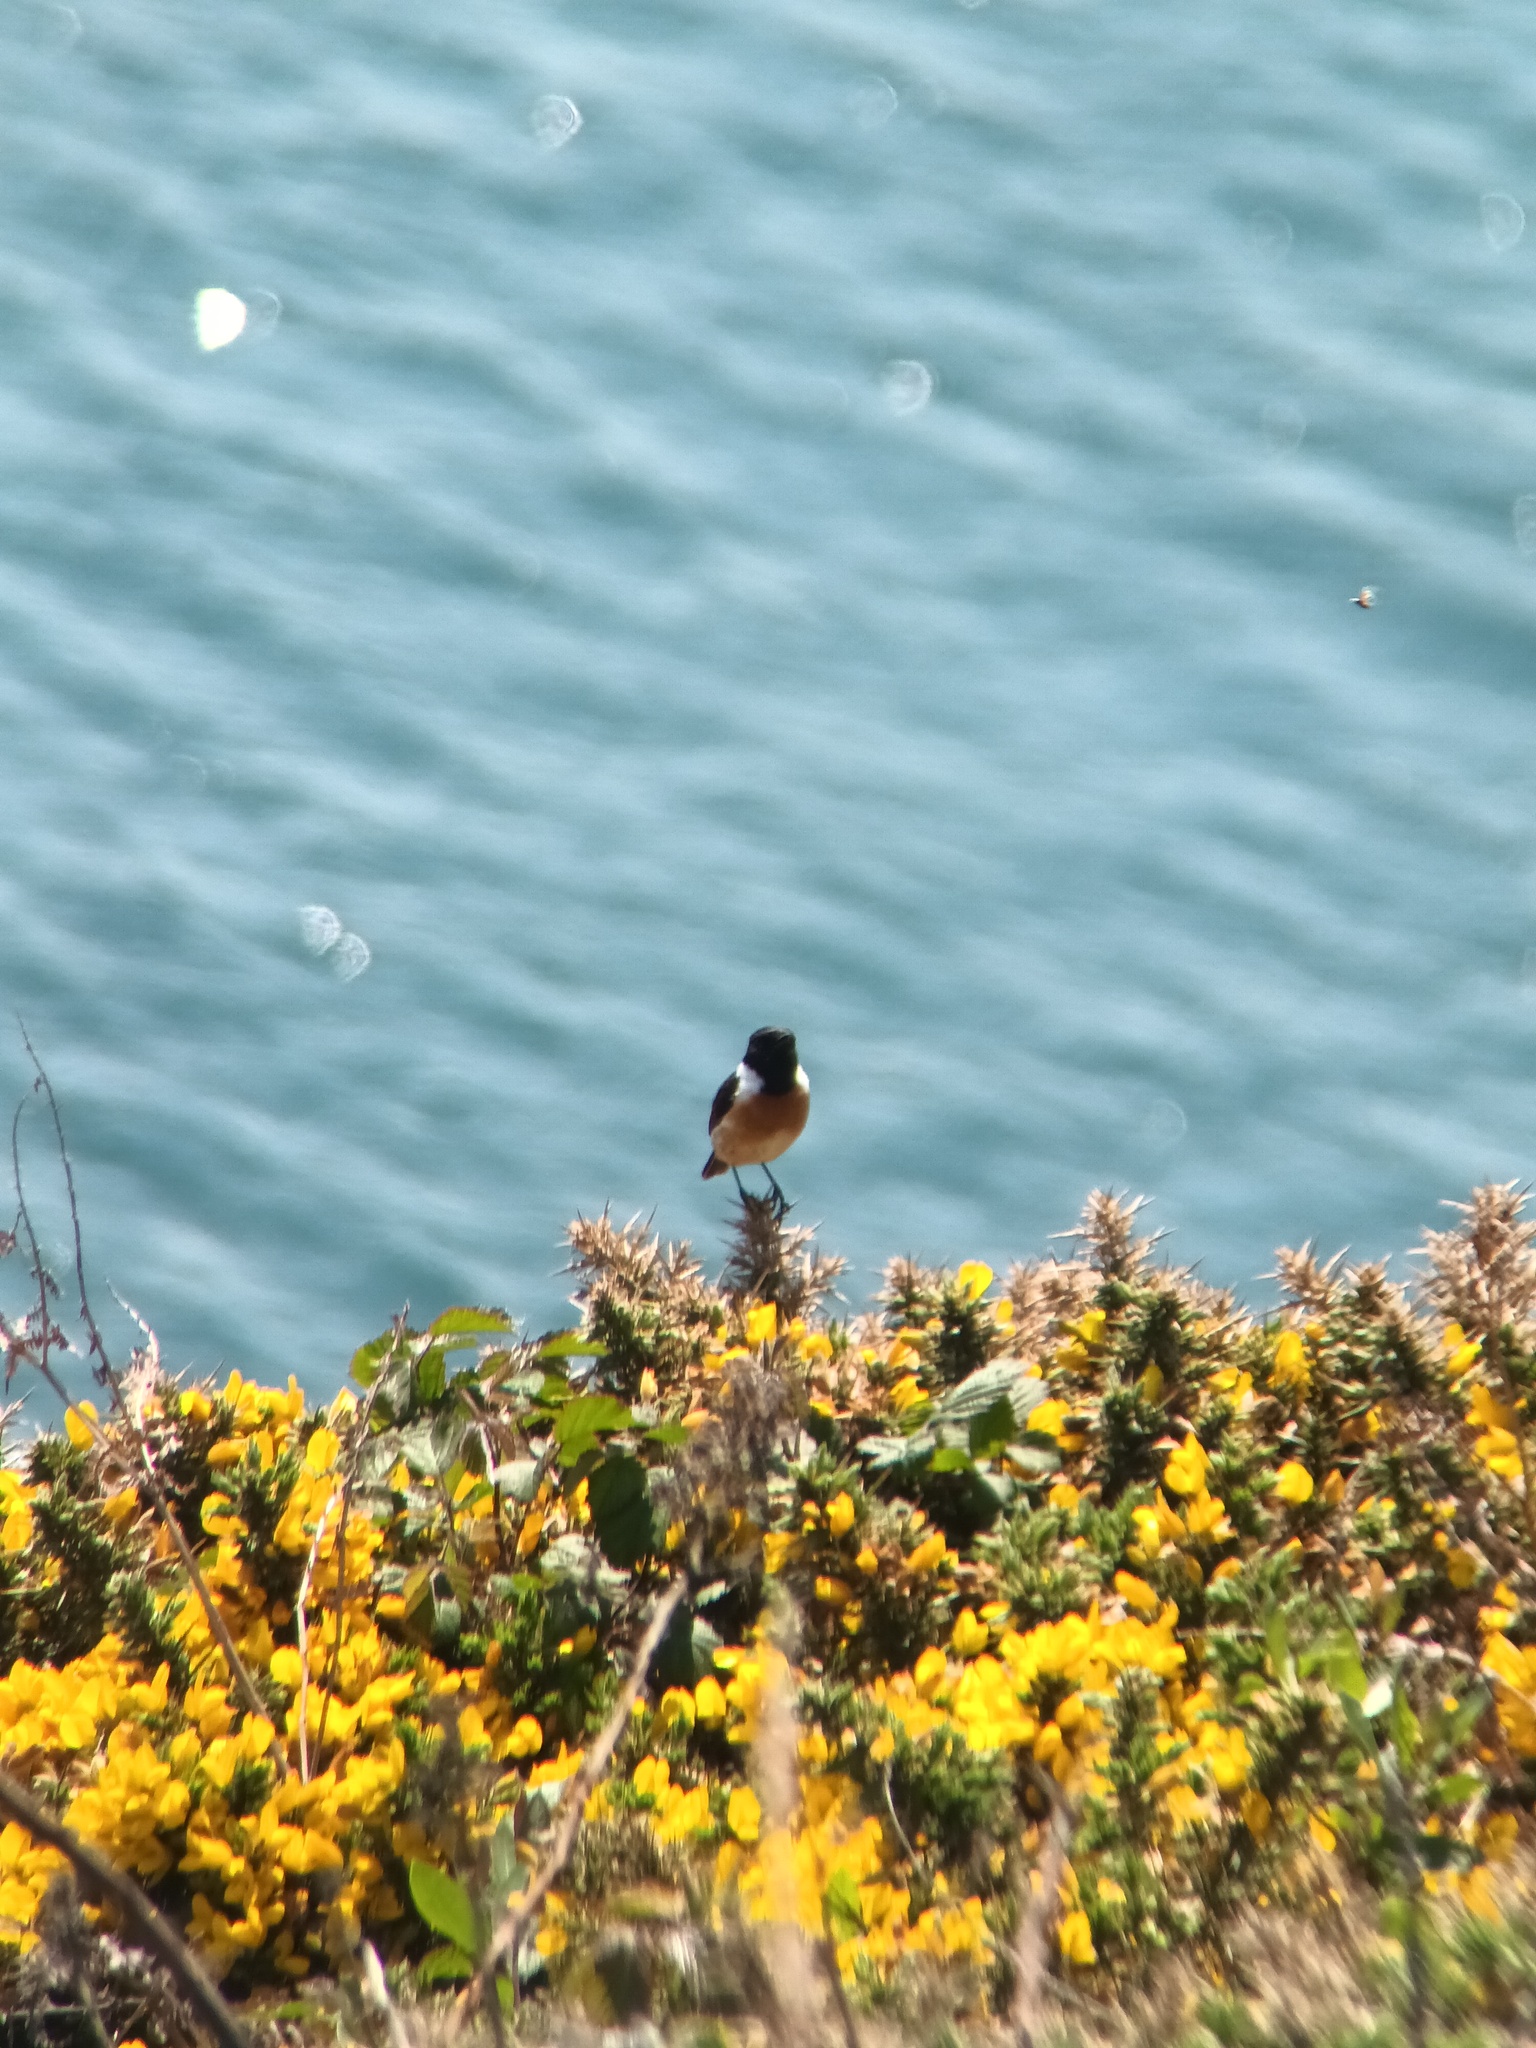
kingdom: Animalia
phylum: Chordata
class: Aves
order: Passeriformes
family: Muscicapidae
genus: Saxicola
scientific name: Saxicola rubicola
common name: European stonechat
